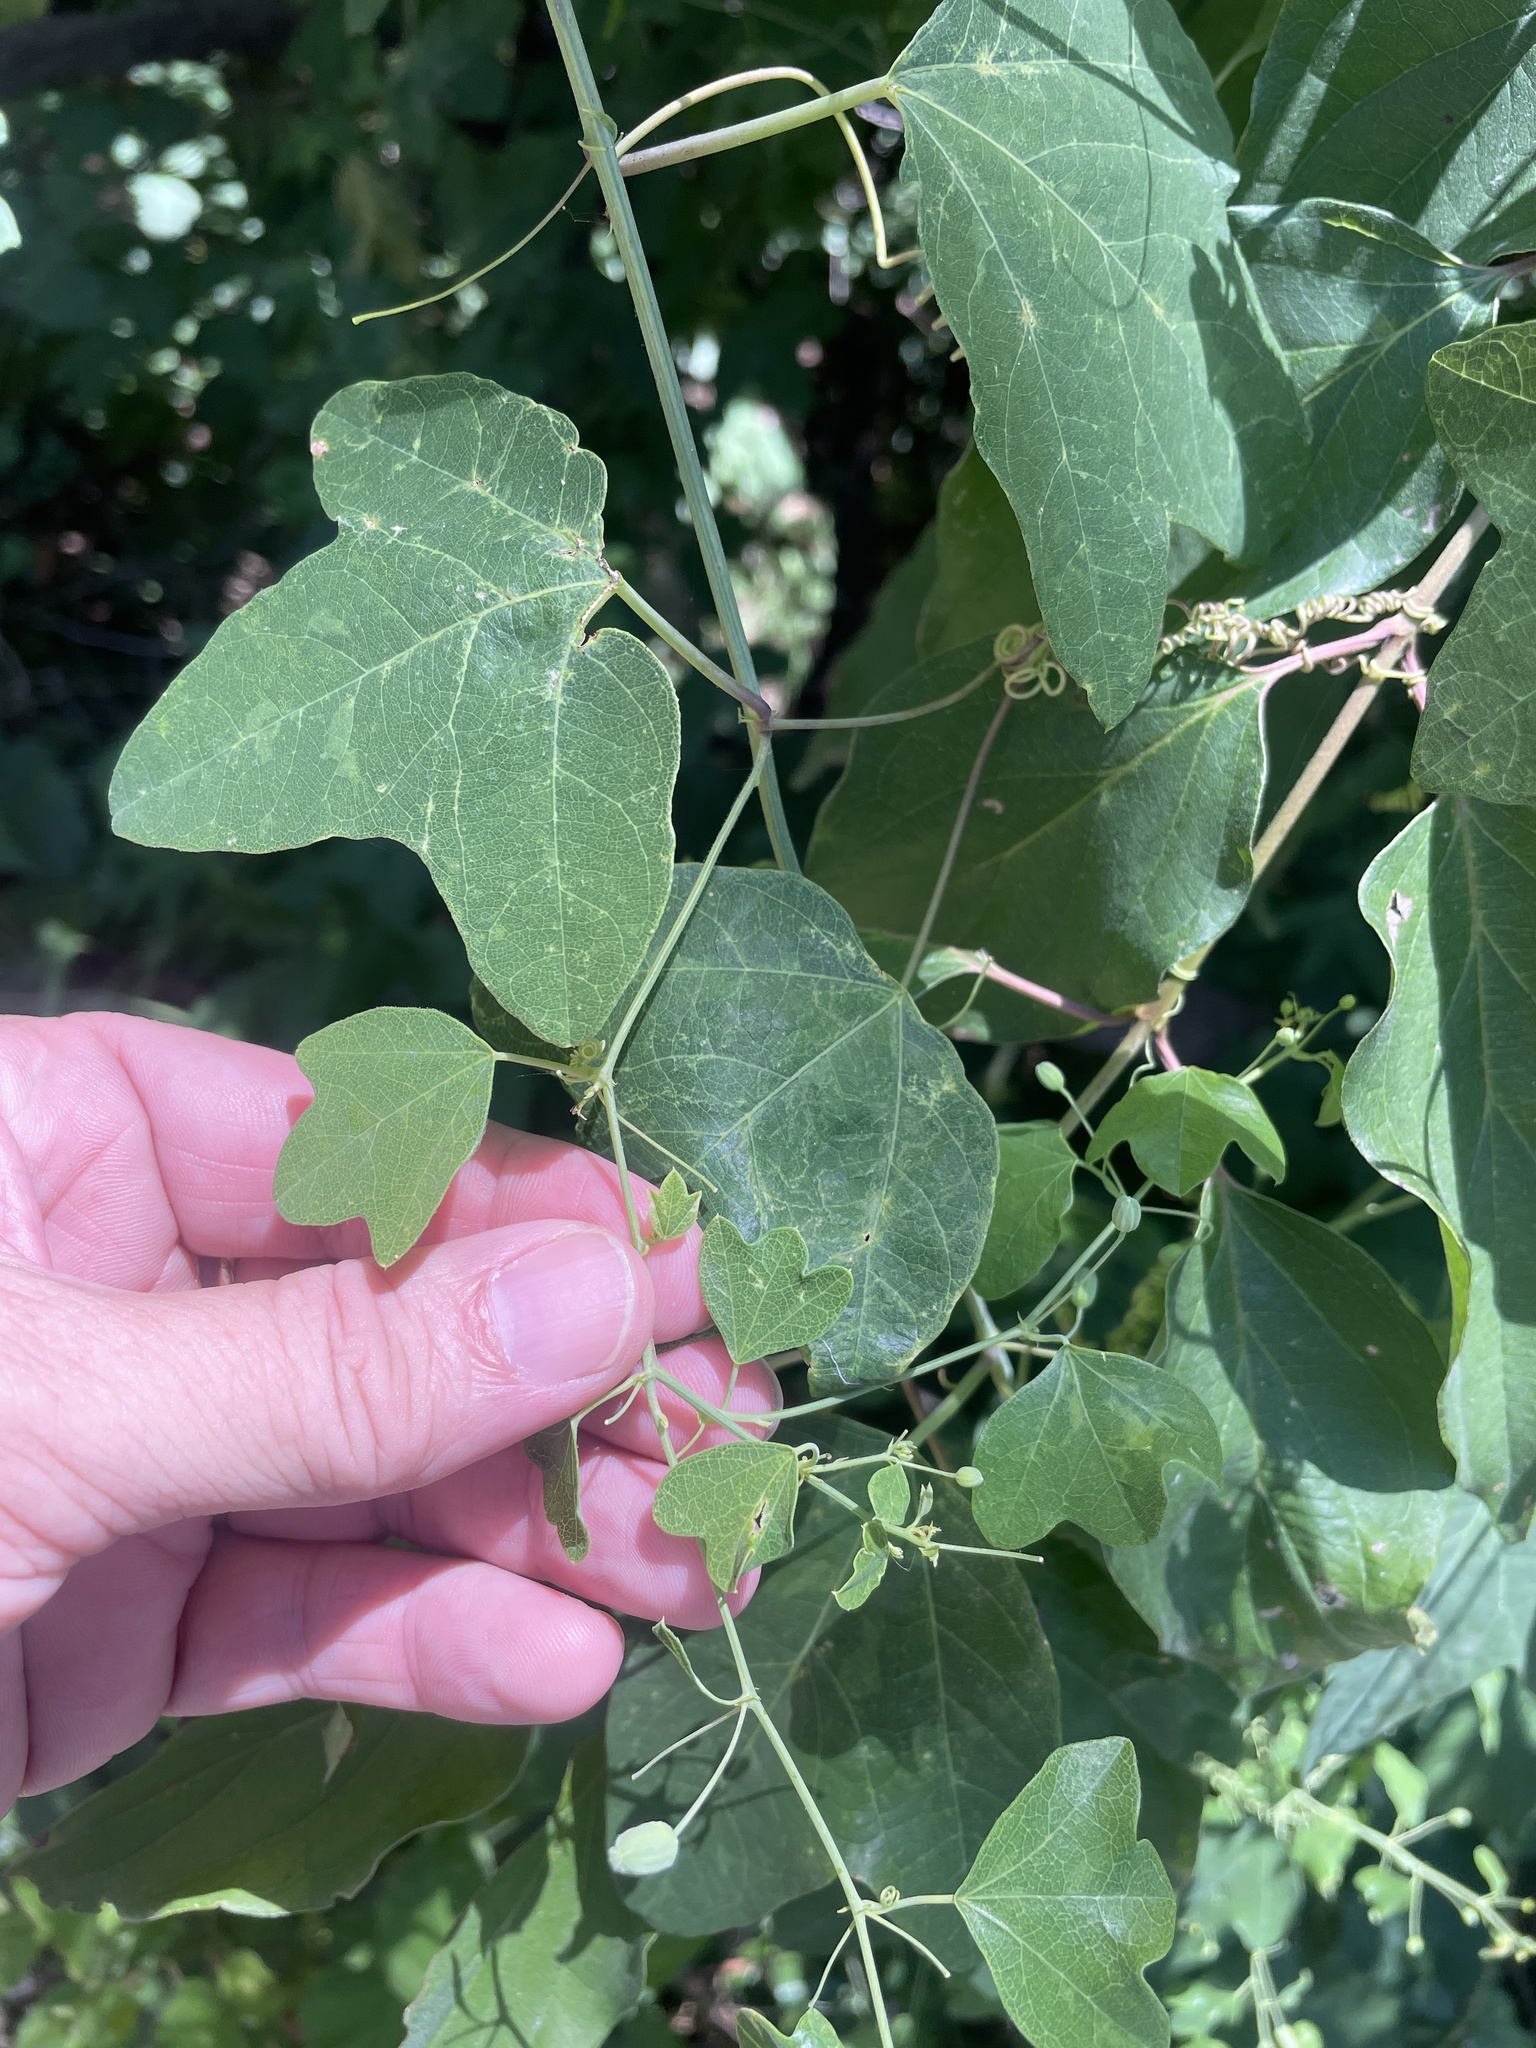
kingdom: Plantae
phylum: Tracheophyta
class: Magnoliopsida
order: Malpighiales
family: Passifloraceae
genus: Passiflora
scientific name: Passiflora lutea
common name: Yellow passionflower
